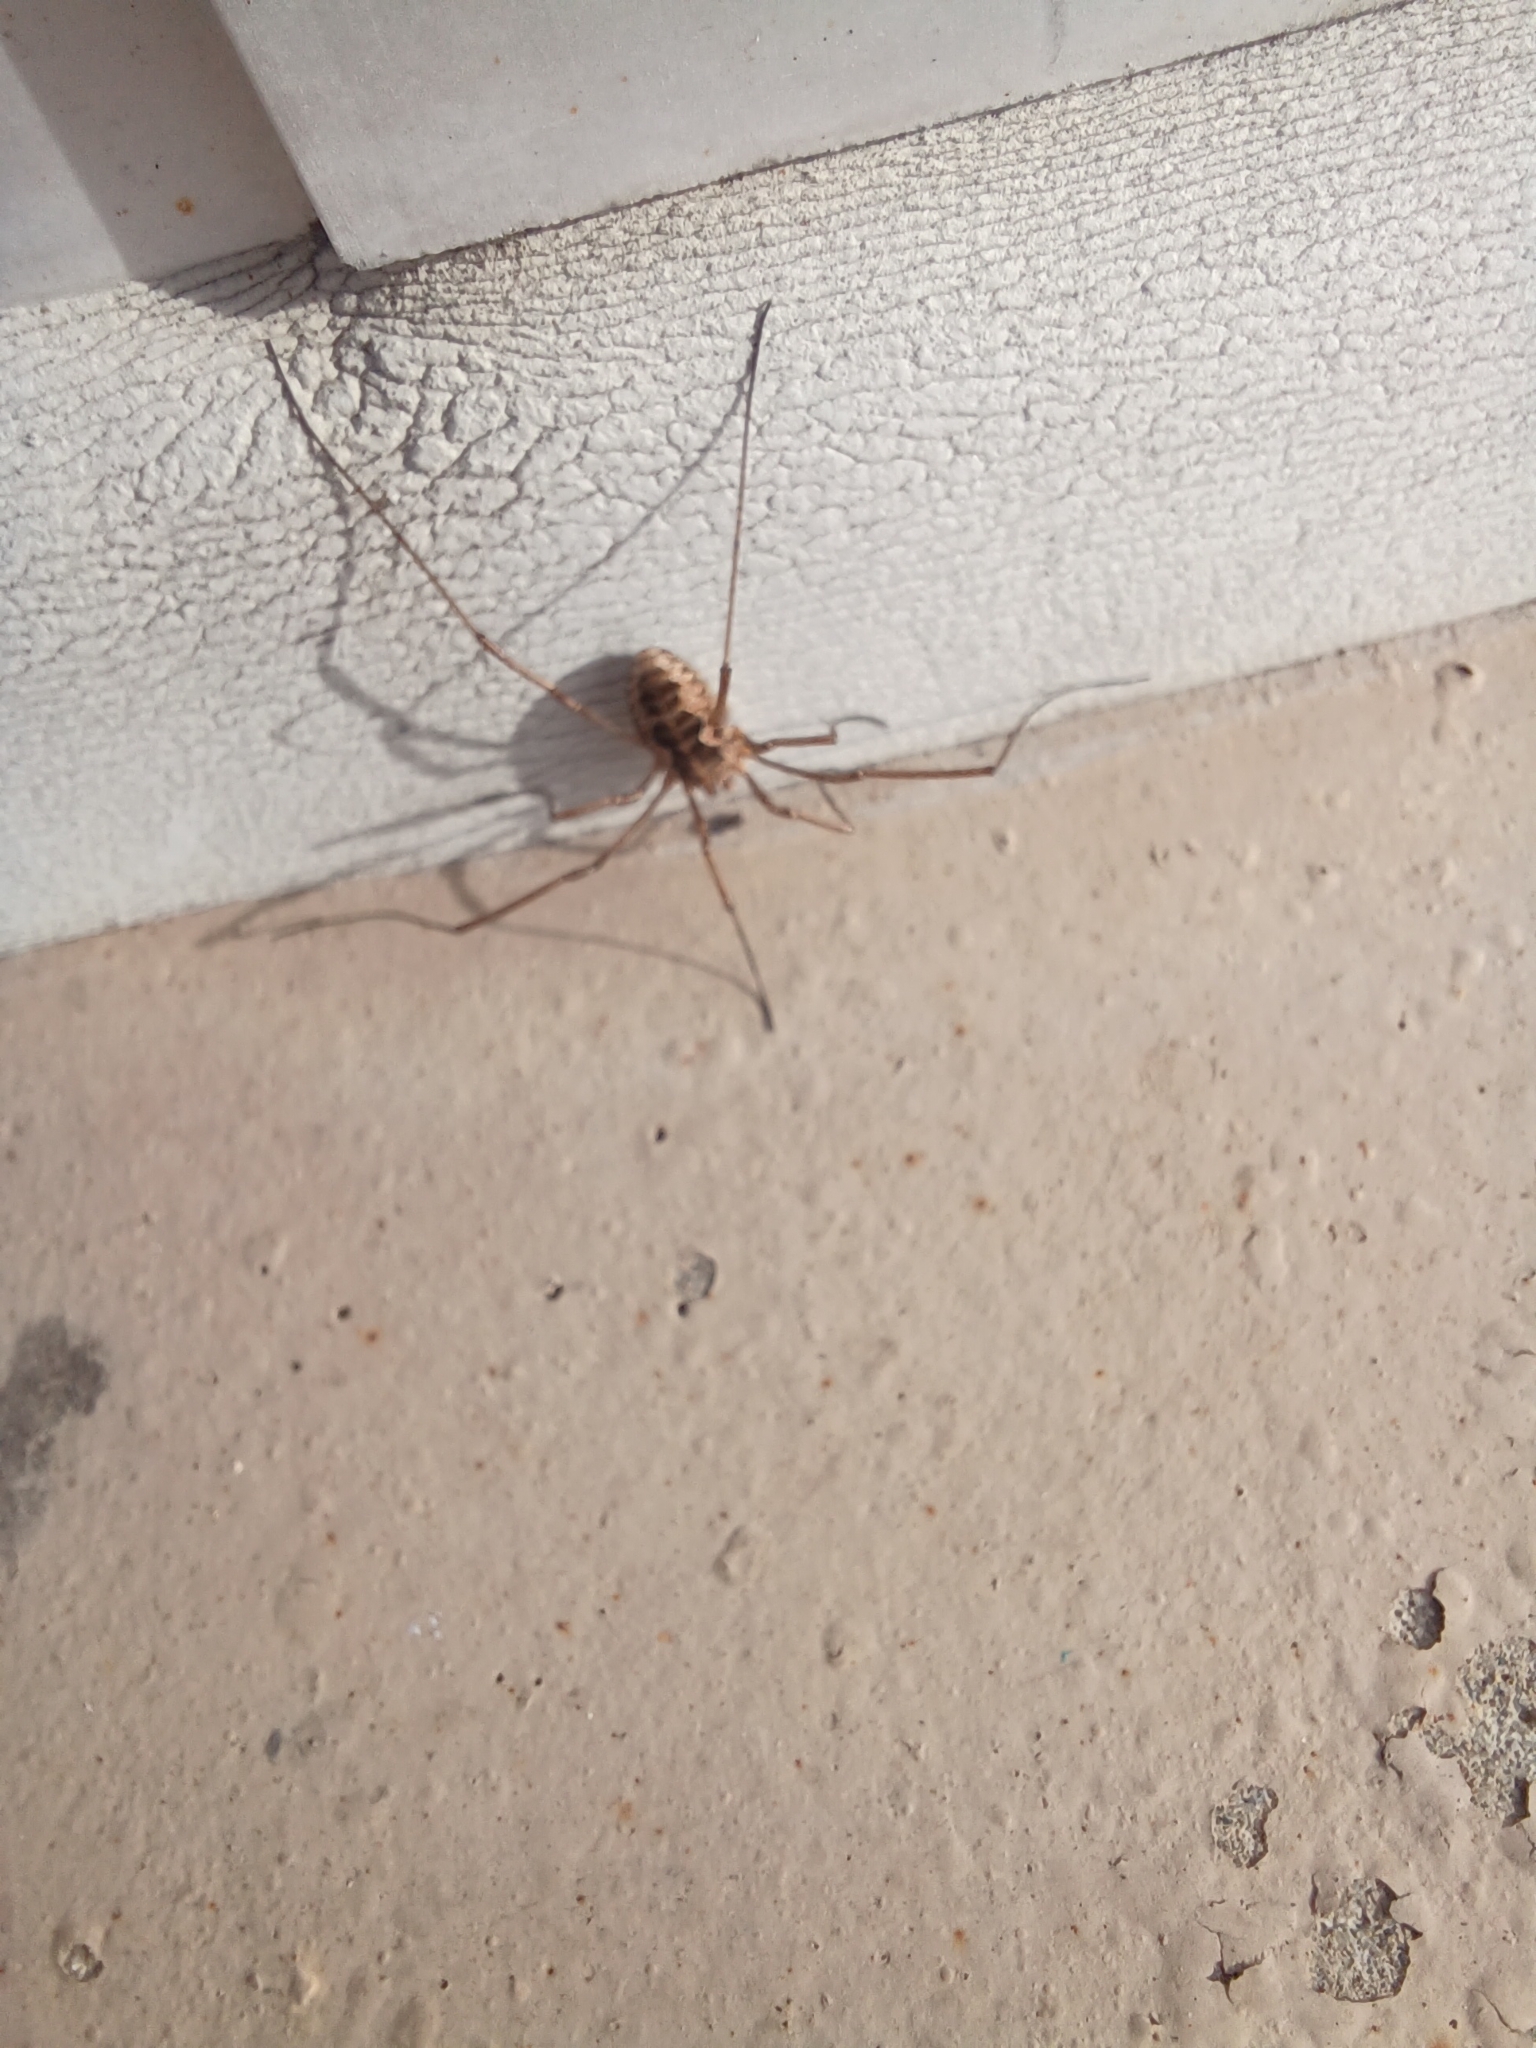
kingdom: Animalia
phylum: Arthropoda
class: Arachnida
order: Opiliones
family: Phalangiidae
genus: Phalangium
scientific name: Phalangium opilio
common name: Daddy longleg
